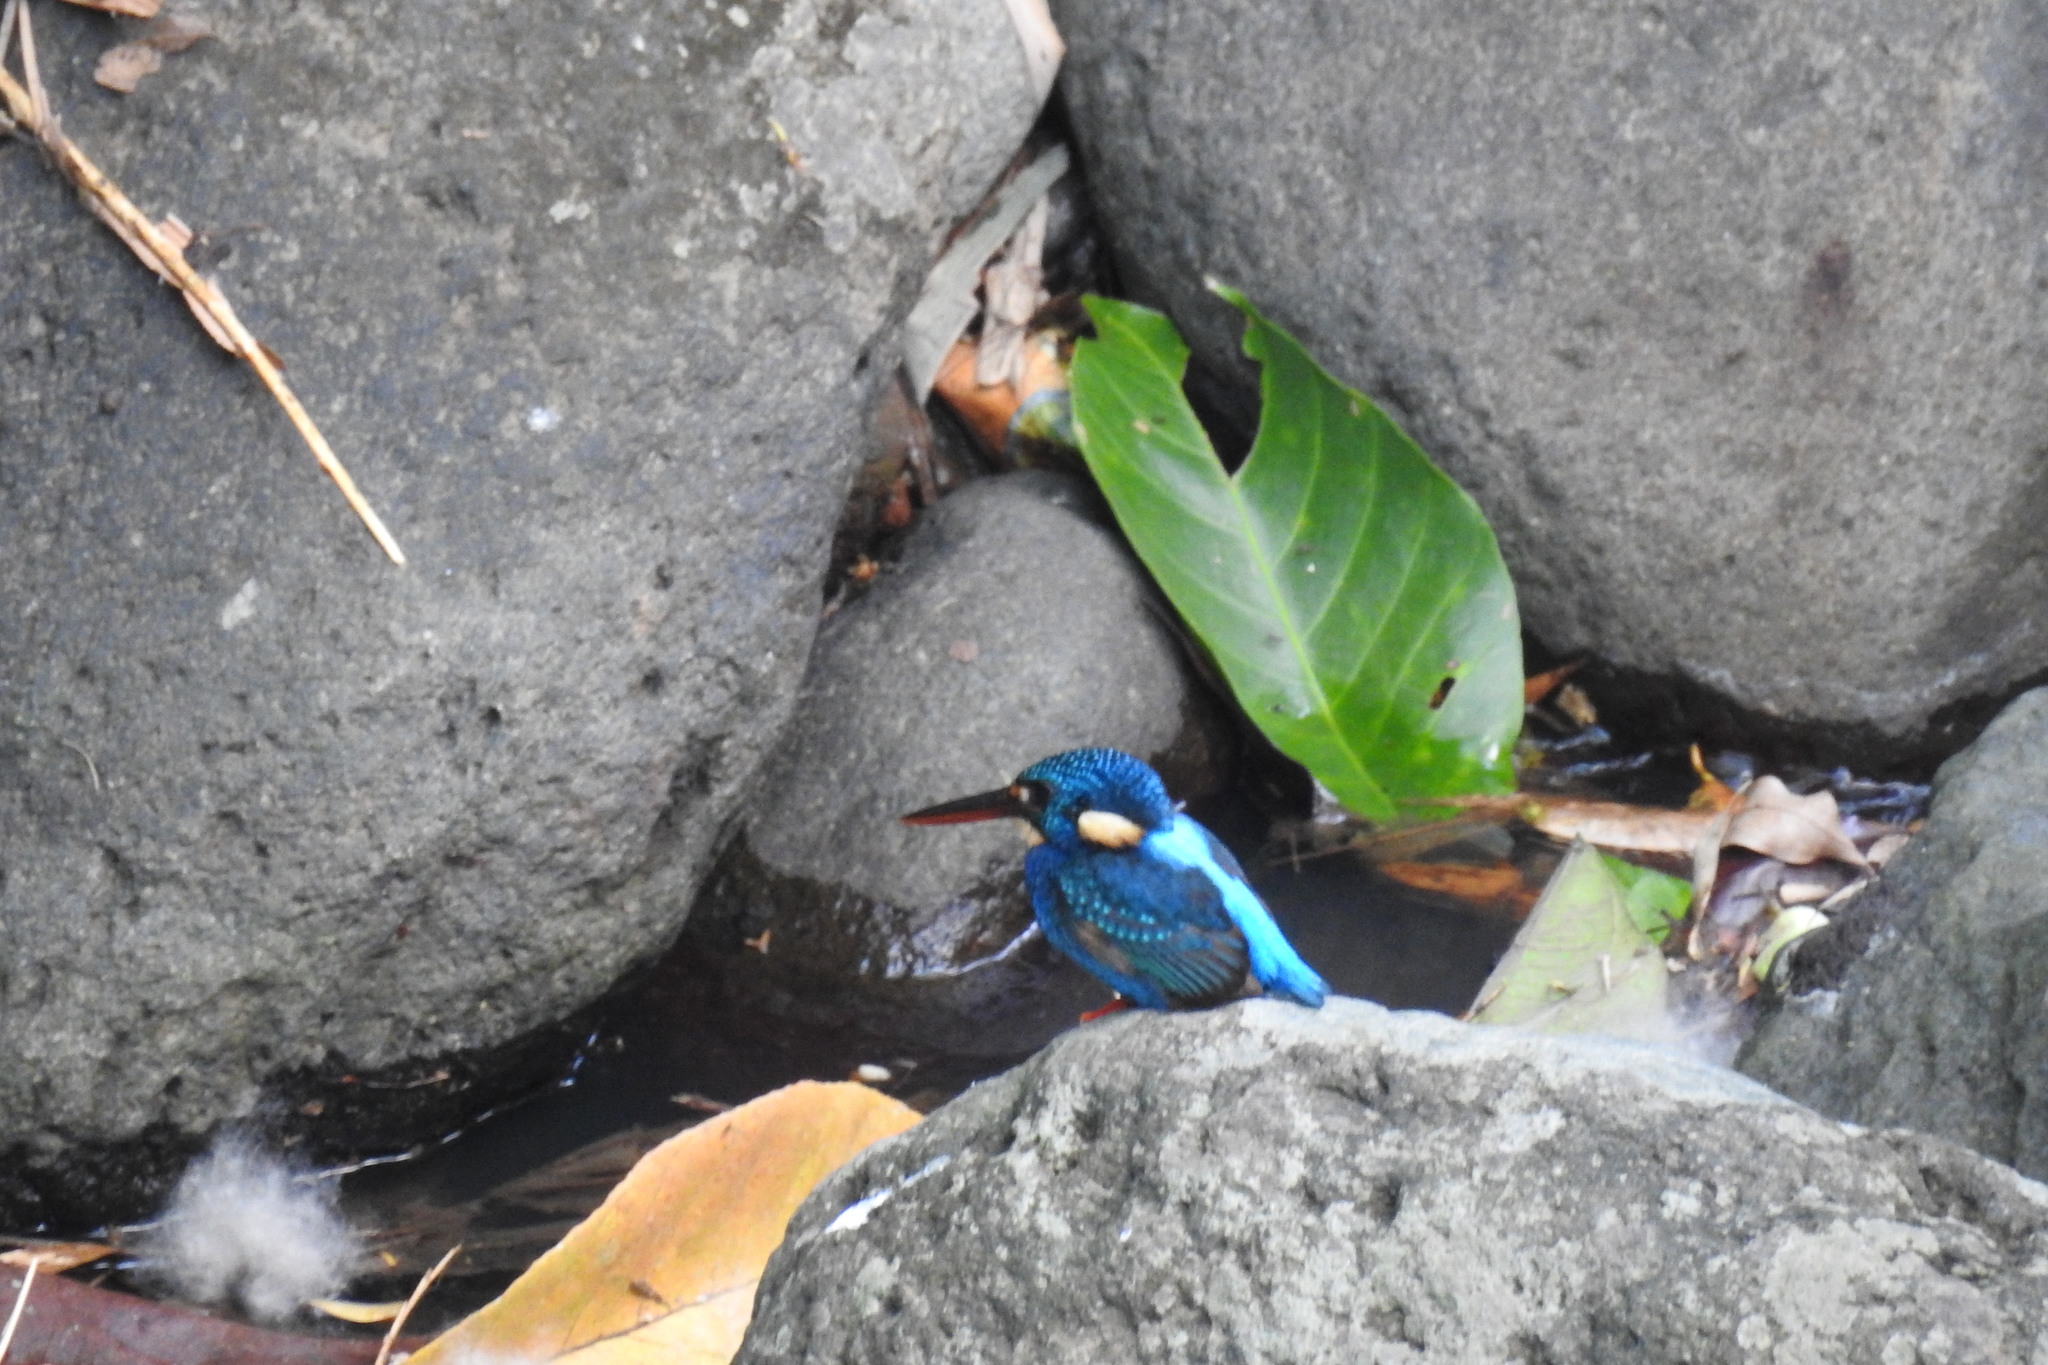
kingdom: Animalia
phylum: Chordata
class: Aves
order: Coraciiformes
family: Alcedinidae
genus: Ceyx
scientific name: Ceyx cyanopectus
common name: Indigo-banded kingfisher
